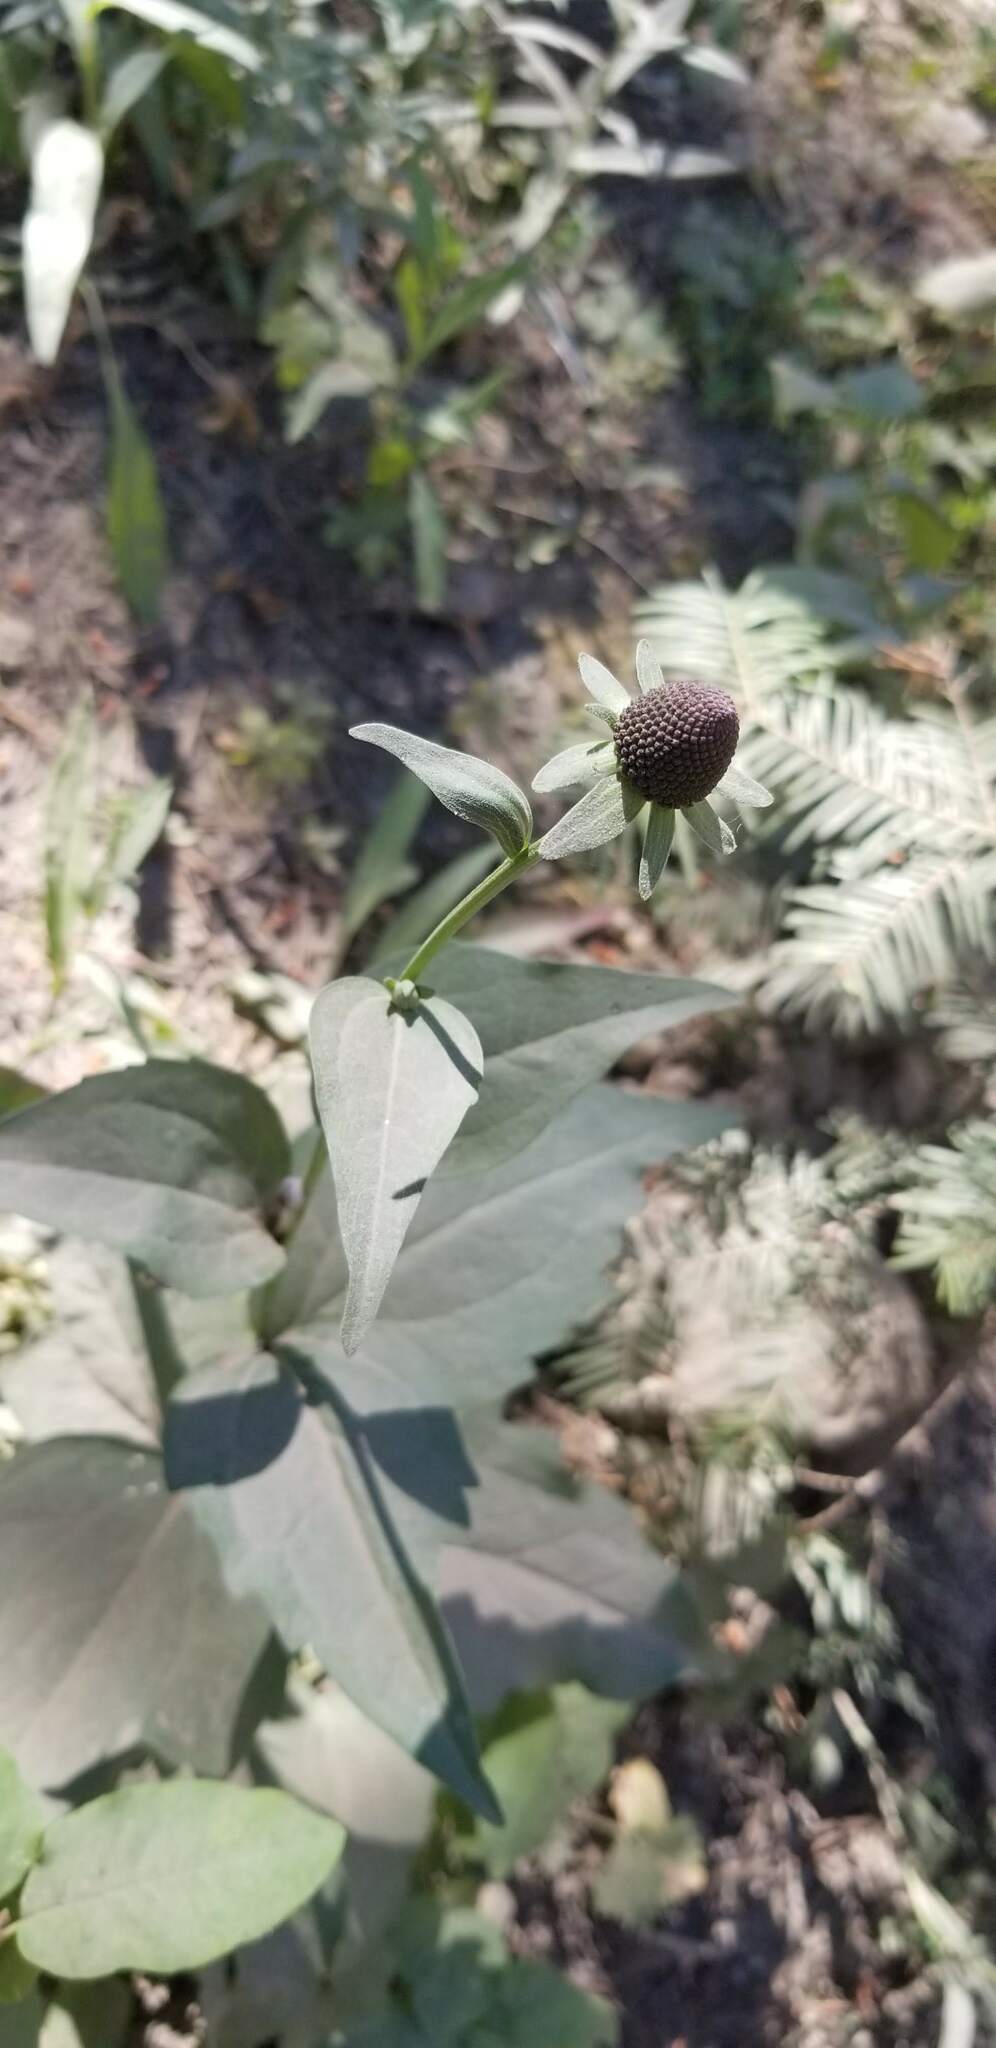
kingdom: Plantae
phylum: Tracheophyta
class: Magnoliopsida
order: Asterales
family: Asteraceae
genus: Rudbeckia
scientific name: Rudbeckia occidentalis
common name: Western coneflower
